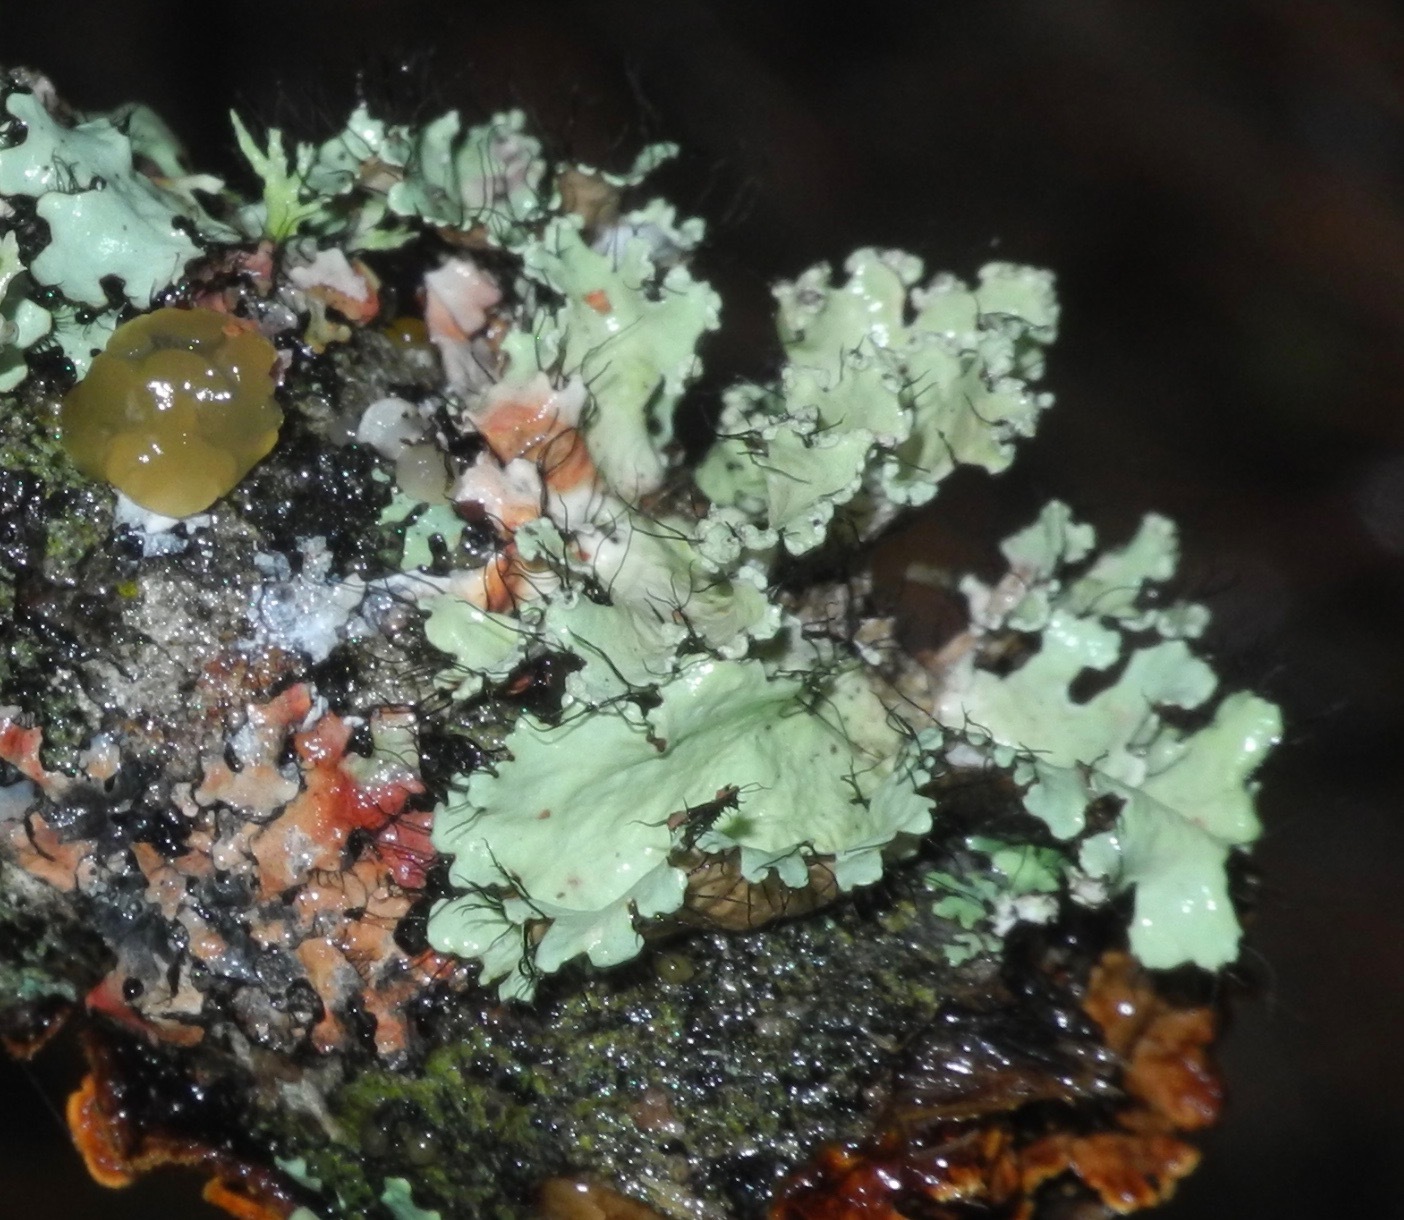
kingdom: Fungi
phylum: Ascomycota
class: Lecanoromycetes
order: Lecanorales
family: Parmeliaceae
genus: Parmotrema
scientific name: Parmotrema hypotropum
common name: Powdered ruffle lichen
